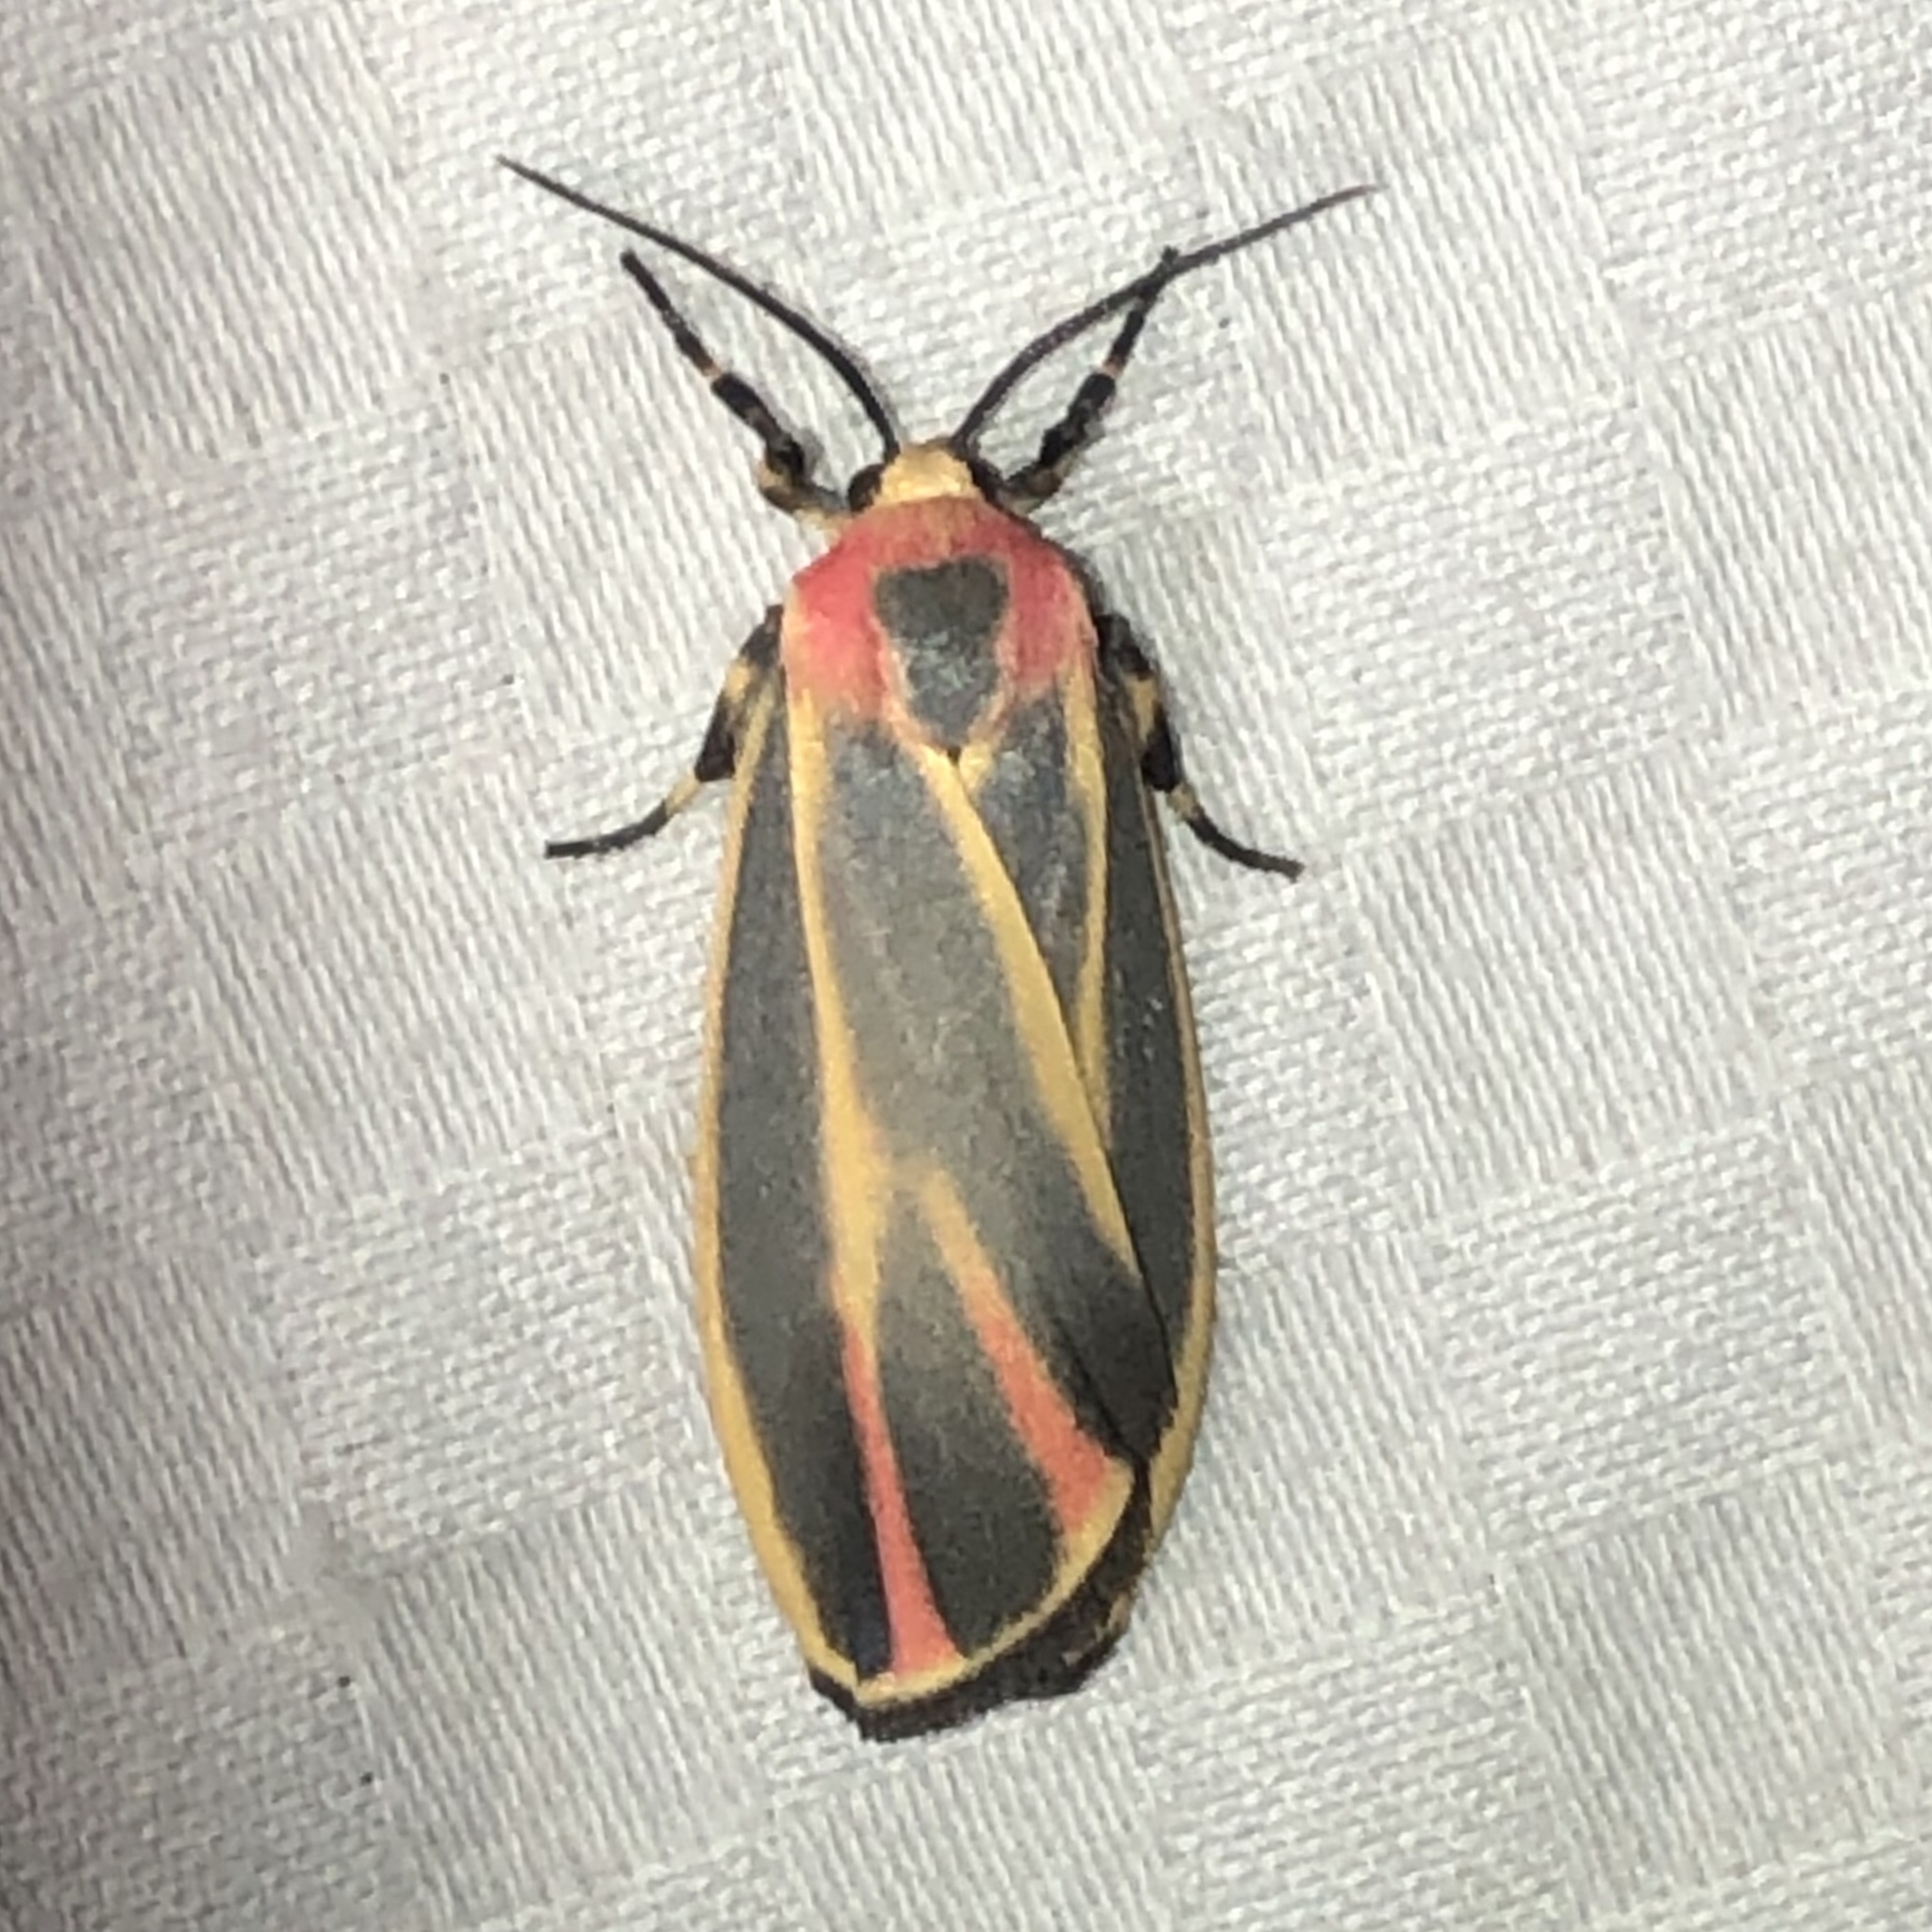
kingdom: Animalia
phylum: Arthropoda
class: Insecta
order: Lepidoptera
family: Erebidae
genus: Hypoprepia
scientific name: Hypoprepia fucosa
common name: Painted lichen moth
